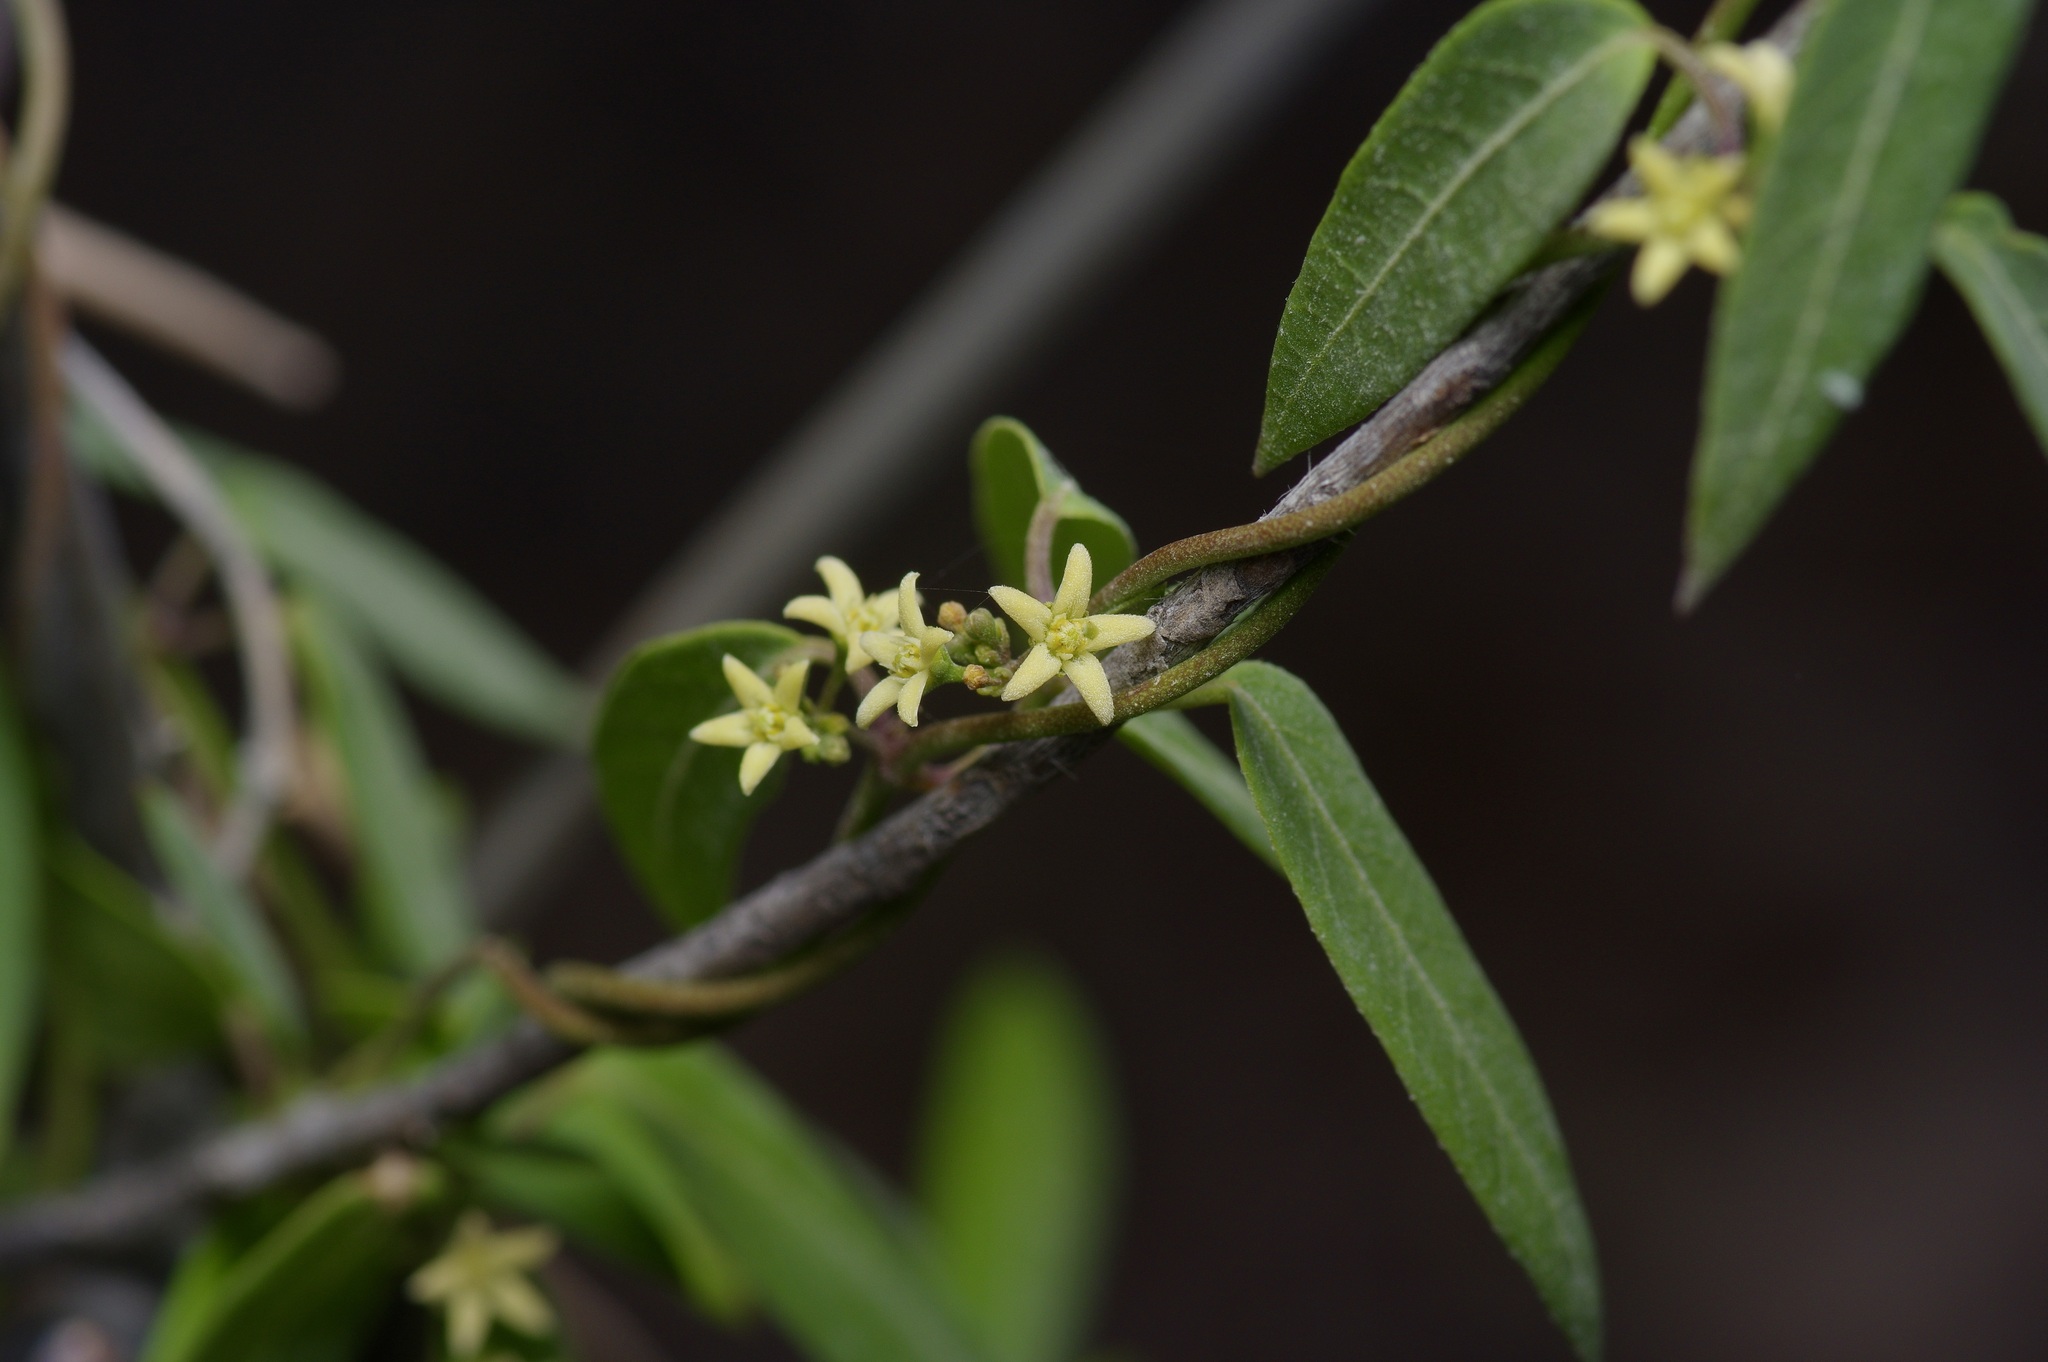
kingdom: Plantae
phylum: Tracheophyta
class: Magnoliopsida
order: Gentianales
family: Apocynaceae
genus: Metastelma
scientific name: Metastelma palmeri
